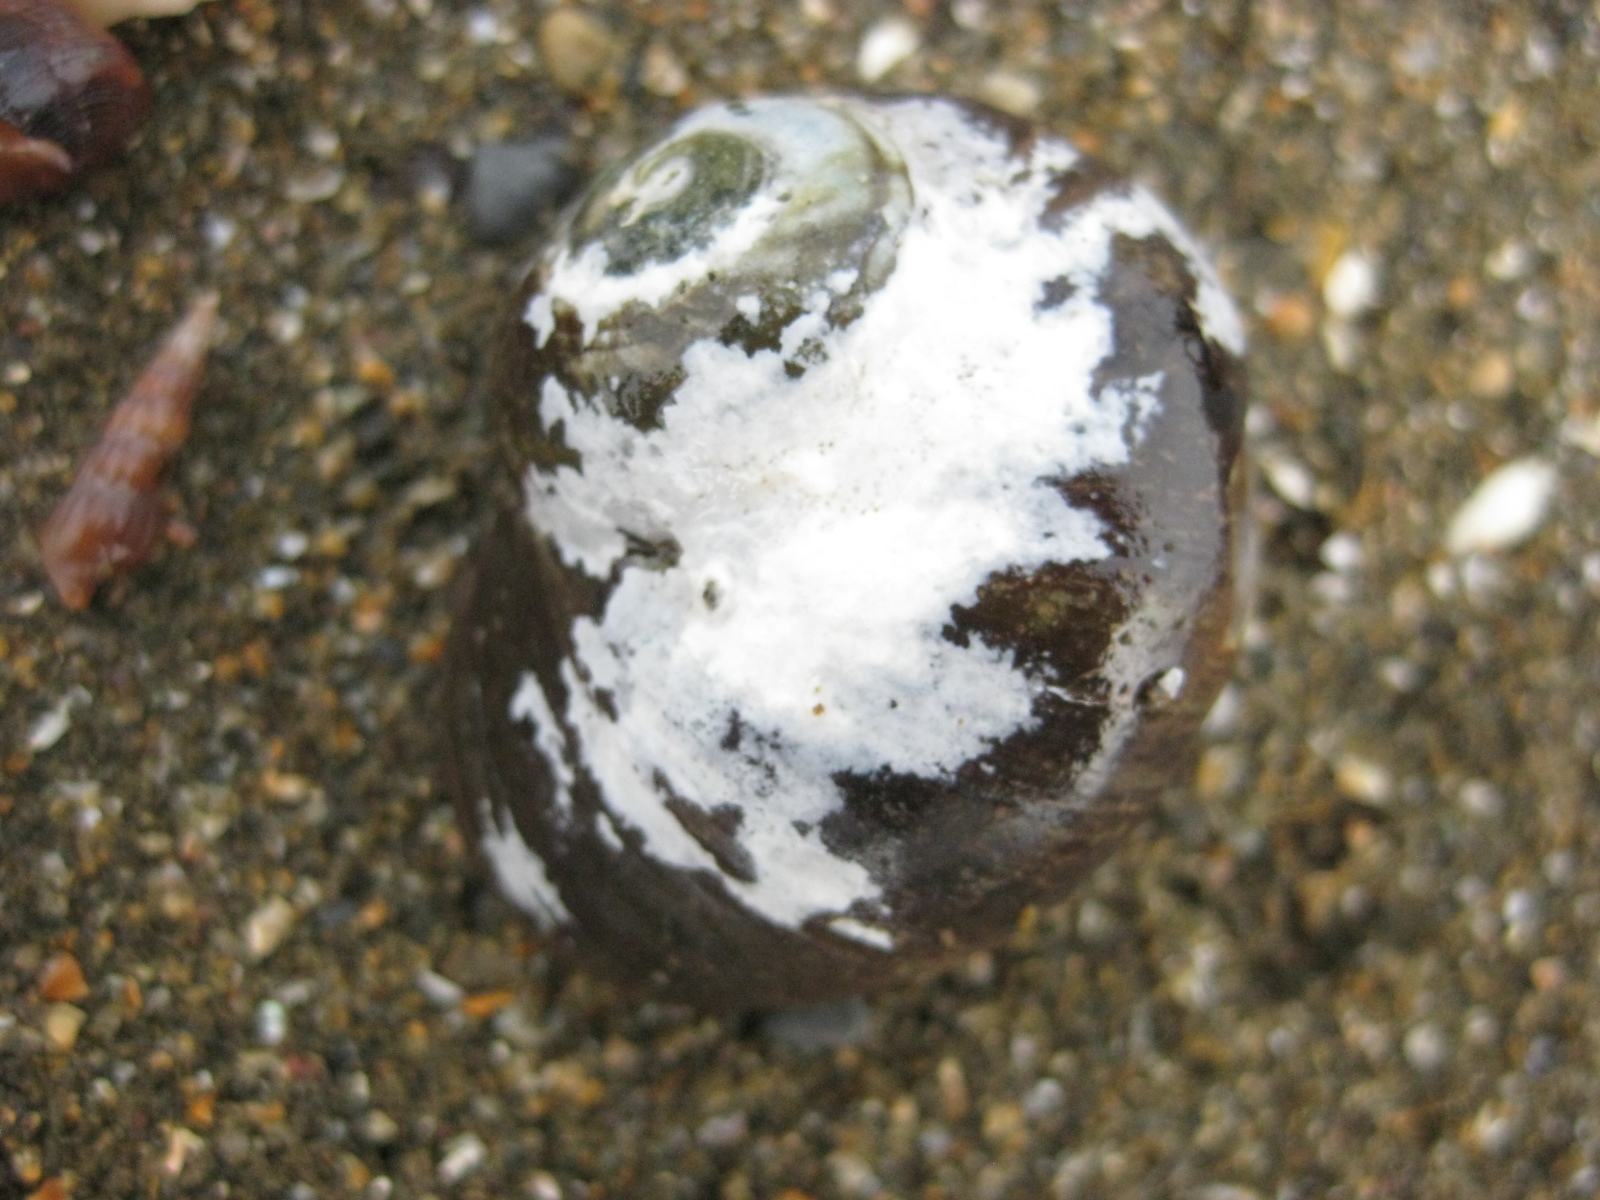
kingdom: Animalia
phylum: Mollusca
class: Gastropoda
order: Trochida
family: Turbinidae
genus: Lunella
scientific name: Lunella smaragda
